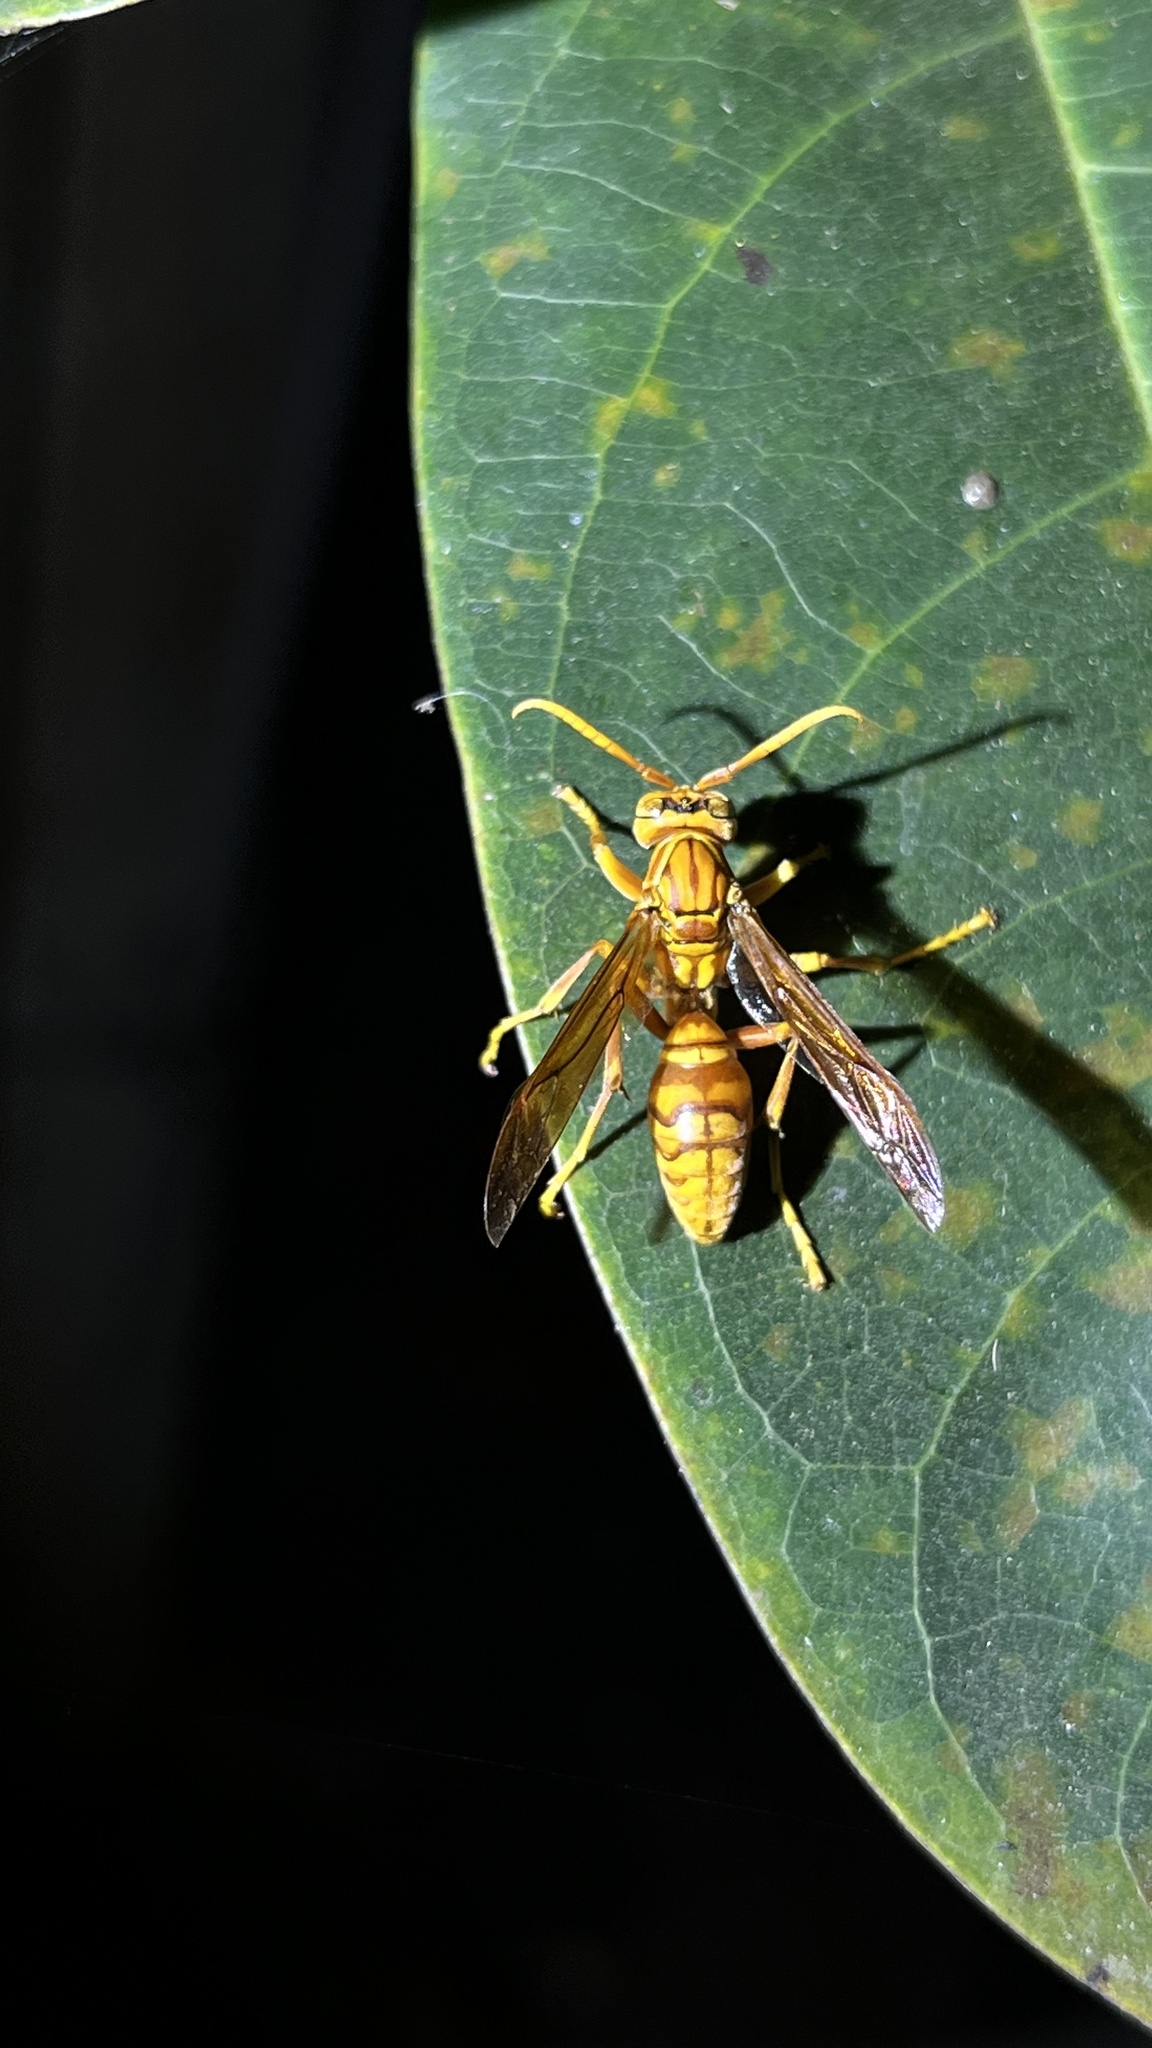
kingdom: Animalia
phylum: Arthropoda
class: Insecta
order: Hymenoptera
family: Eumenidae
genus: Polistes
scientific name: Polistes olivaceus
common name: Paper wasp
